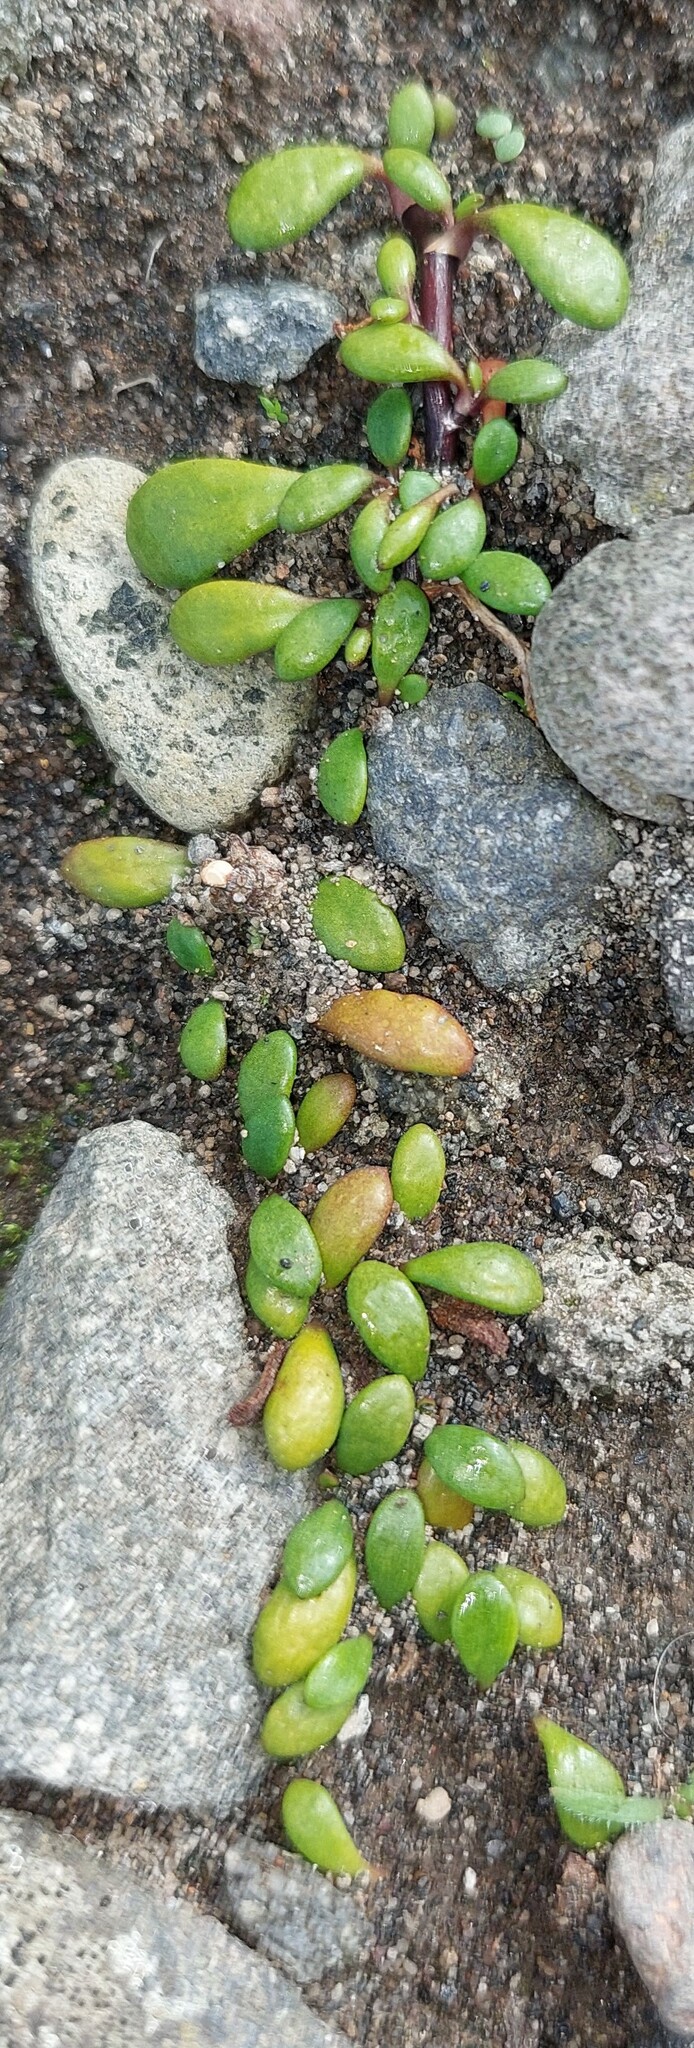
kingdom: Plantae
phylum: Tracheophyta
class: Magnoliopsida
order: Asterales
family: Goodeniaceae
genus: Goodenia
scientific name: Goodenia radicans
